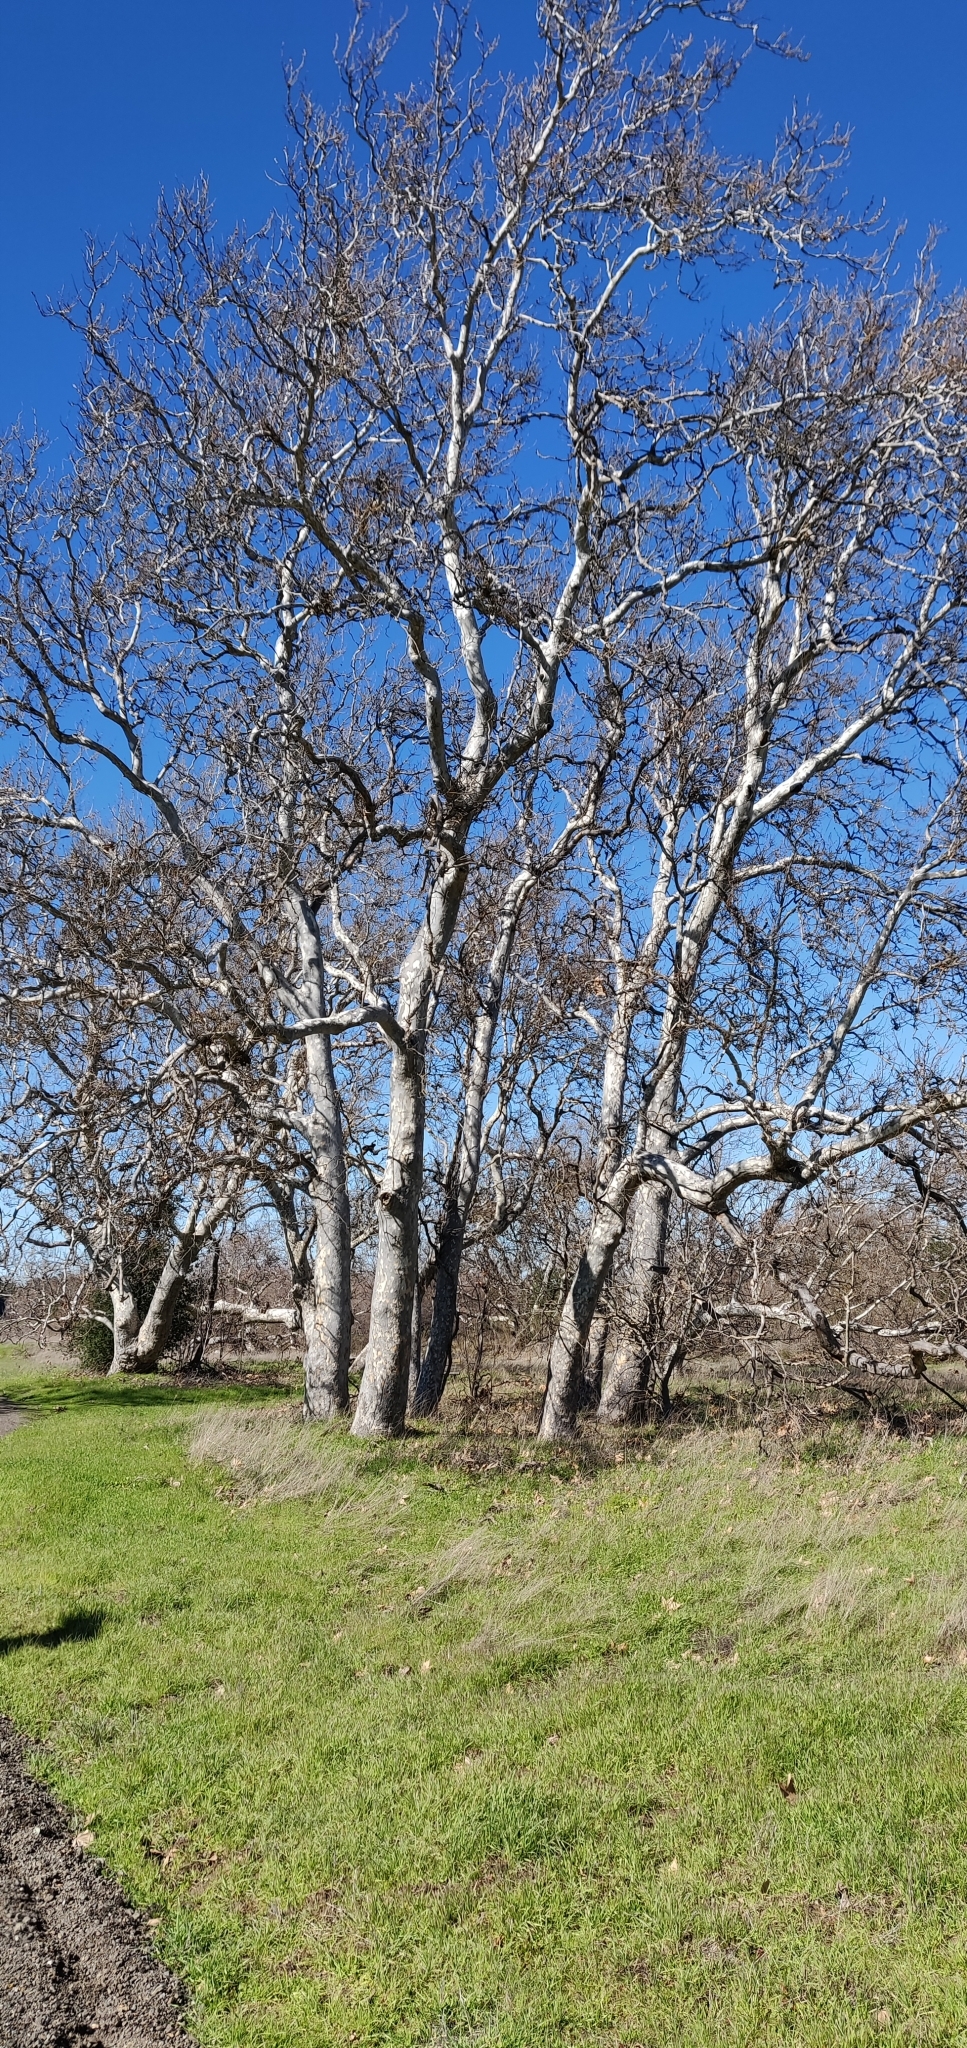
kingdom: Plantae
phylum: Tracheophyta
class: Magnoliopsida
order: Proteales
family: Platanaceae
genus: Platanus
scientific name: Platanus racemosa
